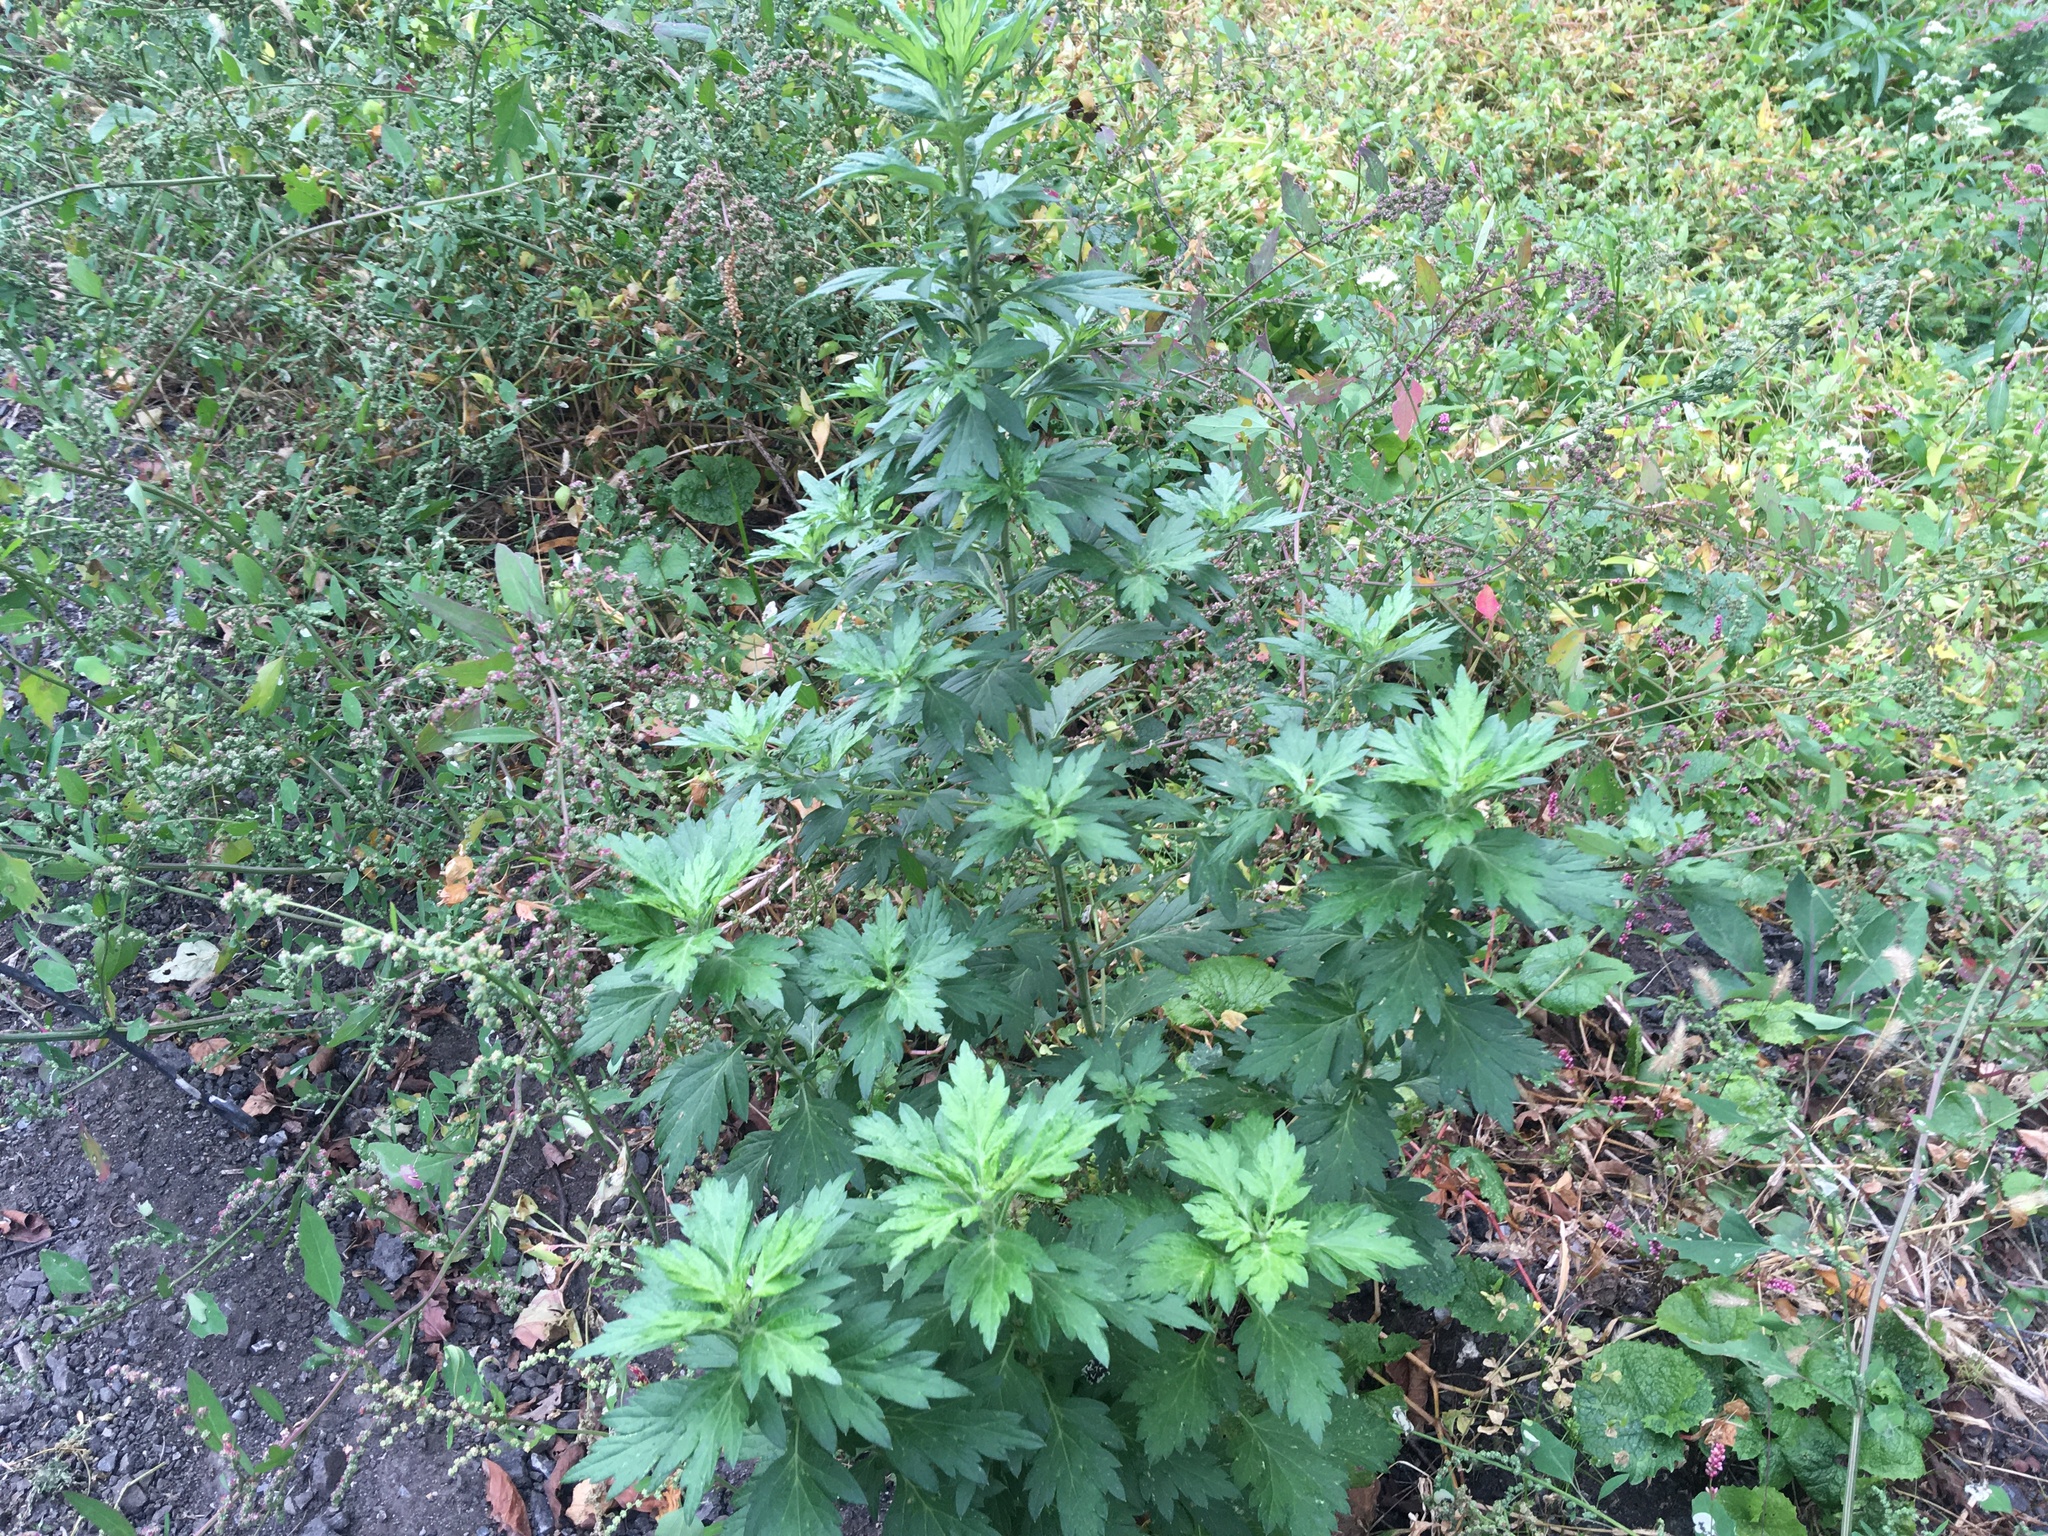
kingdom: Plantae
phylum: Tracheophyta
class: Magnoliopsida
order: Asterales
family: Asteraceae
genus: Artemisia
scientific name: Artemisia vulgaris
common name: Mugwort
